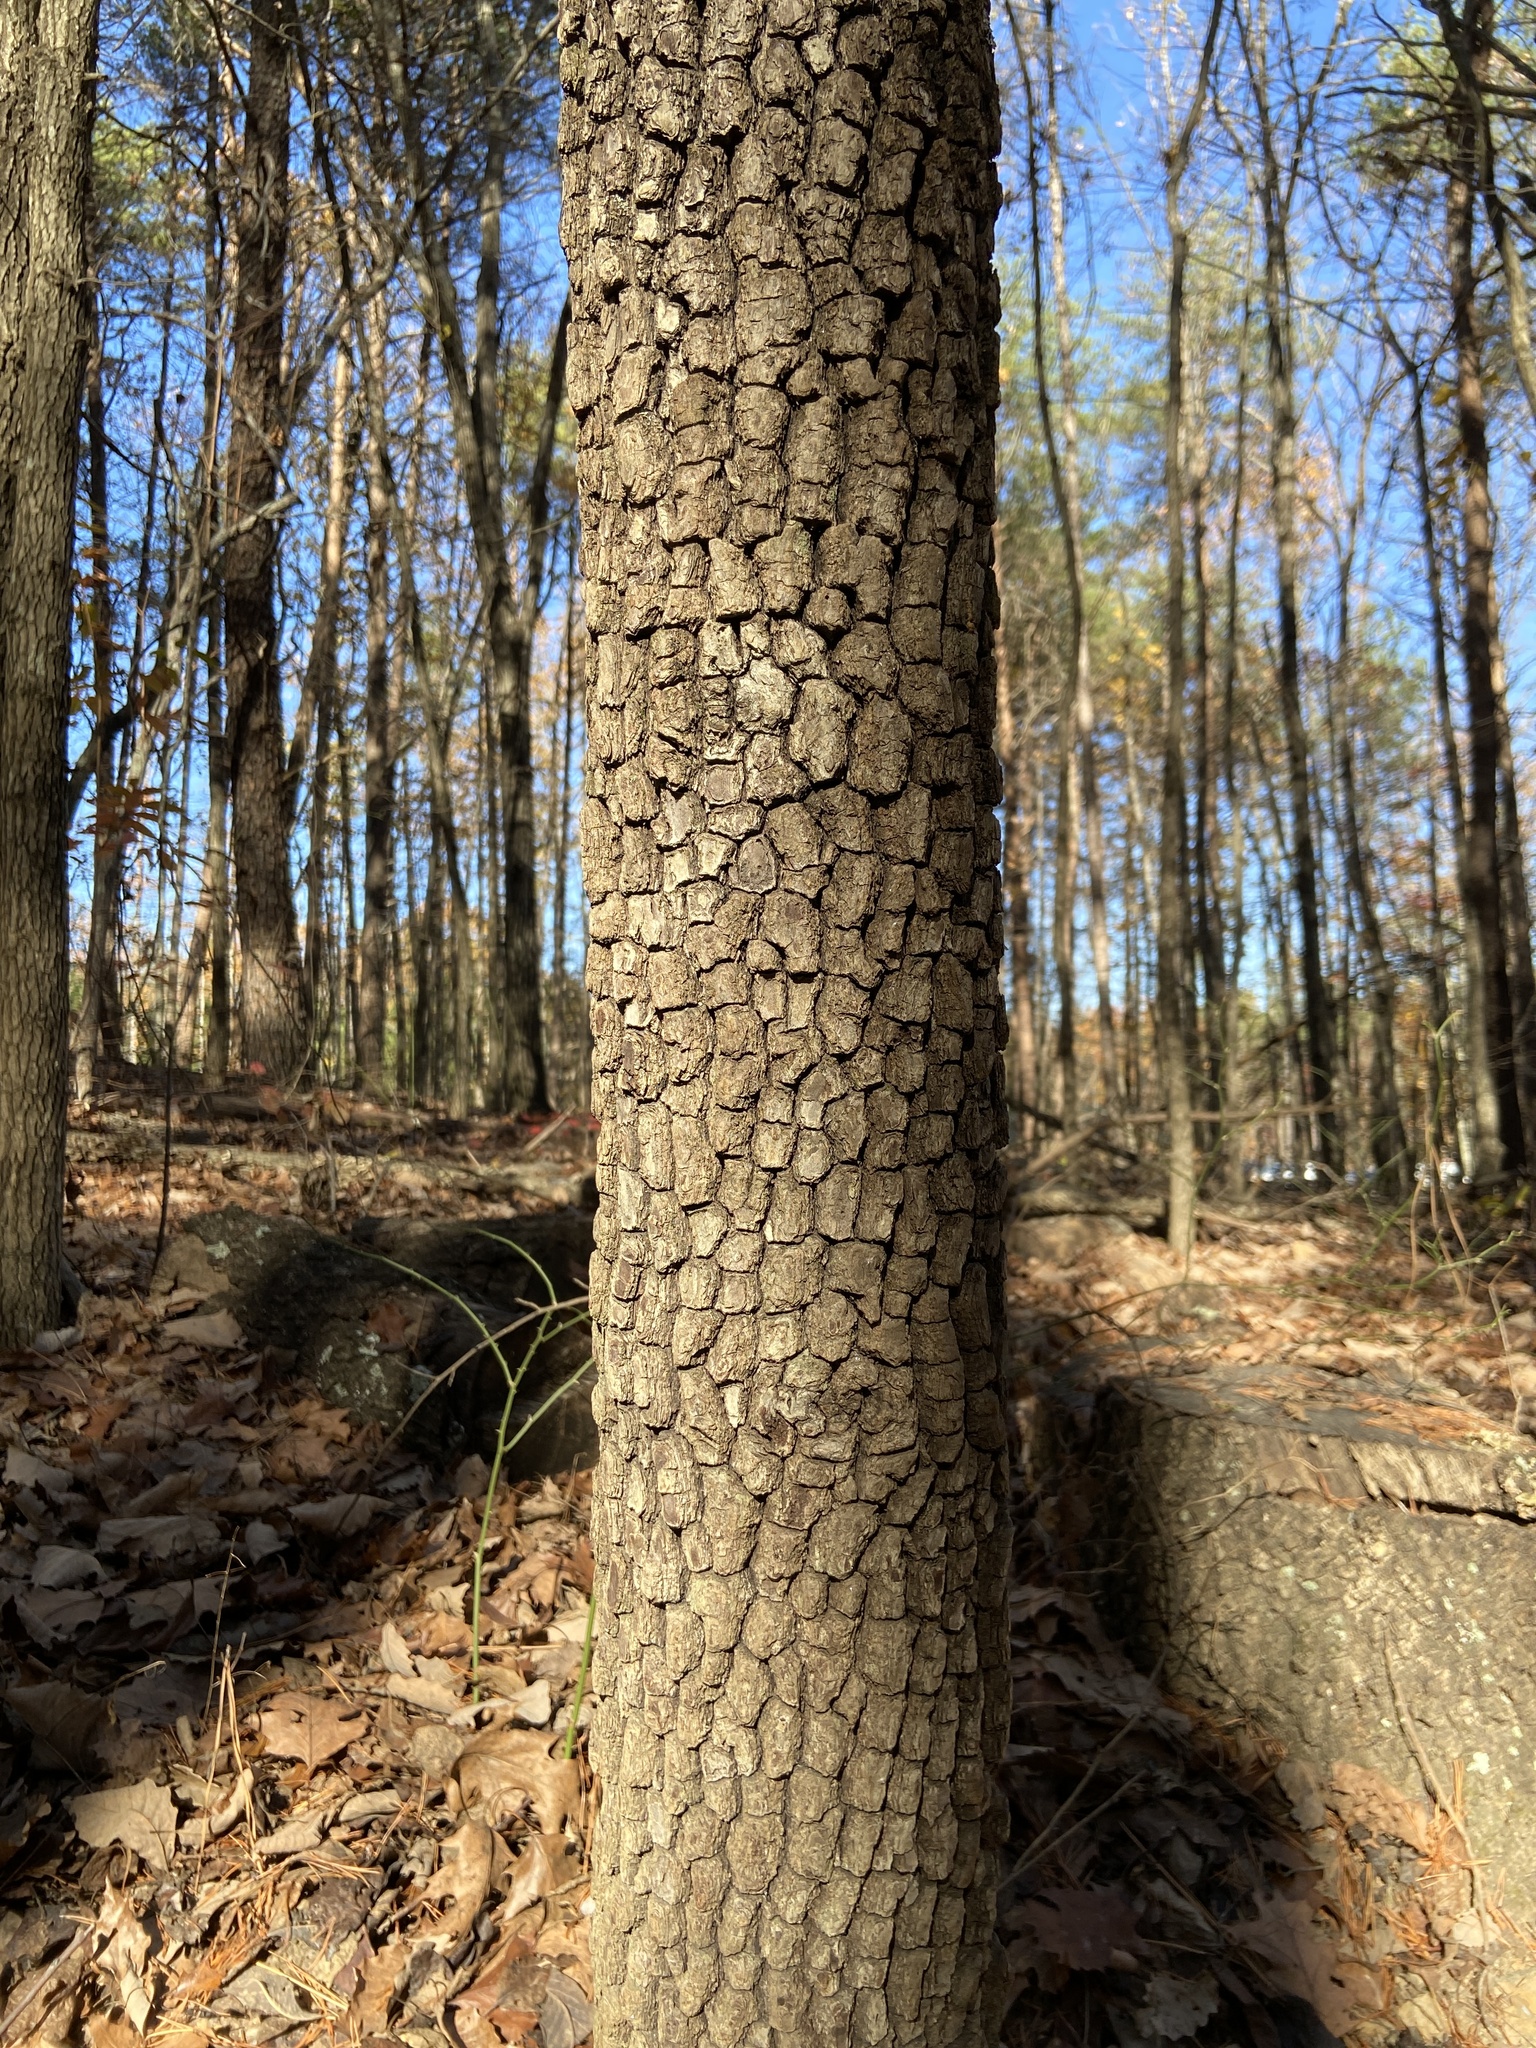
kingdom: Plantae
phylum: Tracheophyta
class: Magnoliopsida
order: Ericales
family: Ebenaceae
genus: Diospyros
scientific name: Diospyros virginiana
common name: Persimmon
